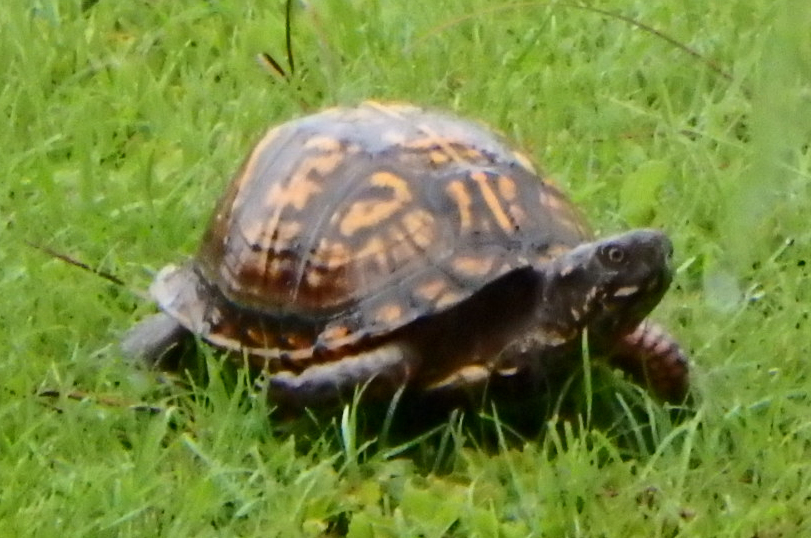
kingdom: Animalia
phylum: Chordata
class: Testudines
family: Emydidae
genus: Terrapene
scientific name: Terrapene carolina
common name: Common box turtle
